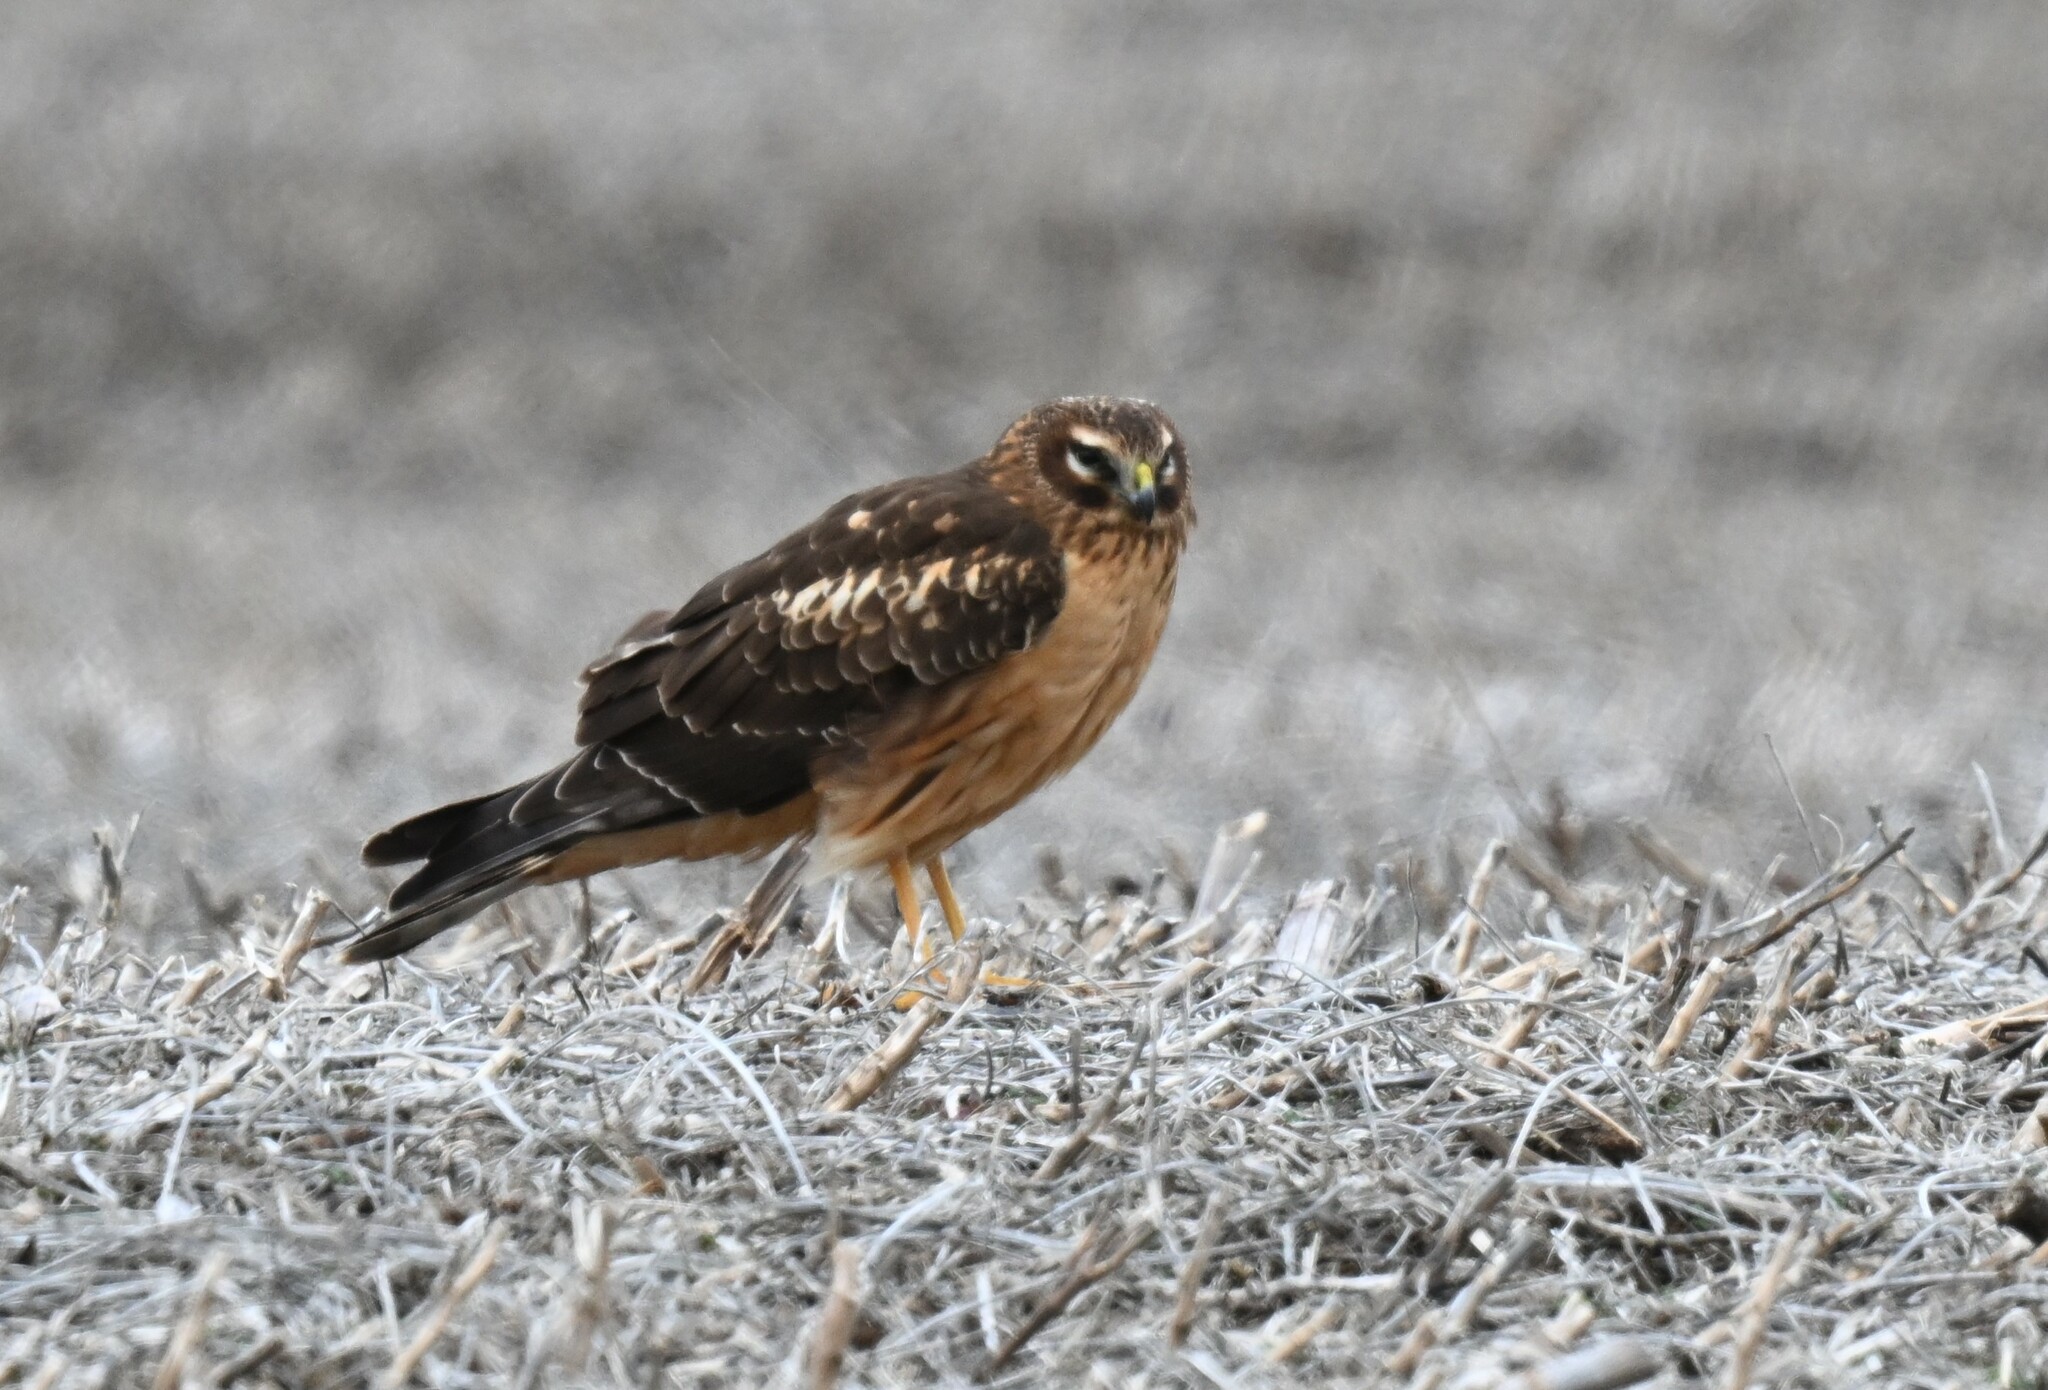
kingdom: Animalia
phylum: Chordata
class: Aves
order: Accipitriformes
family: Accipitridae
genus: Circus
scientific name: Circus cyaneus
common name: Hen harrier
